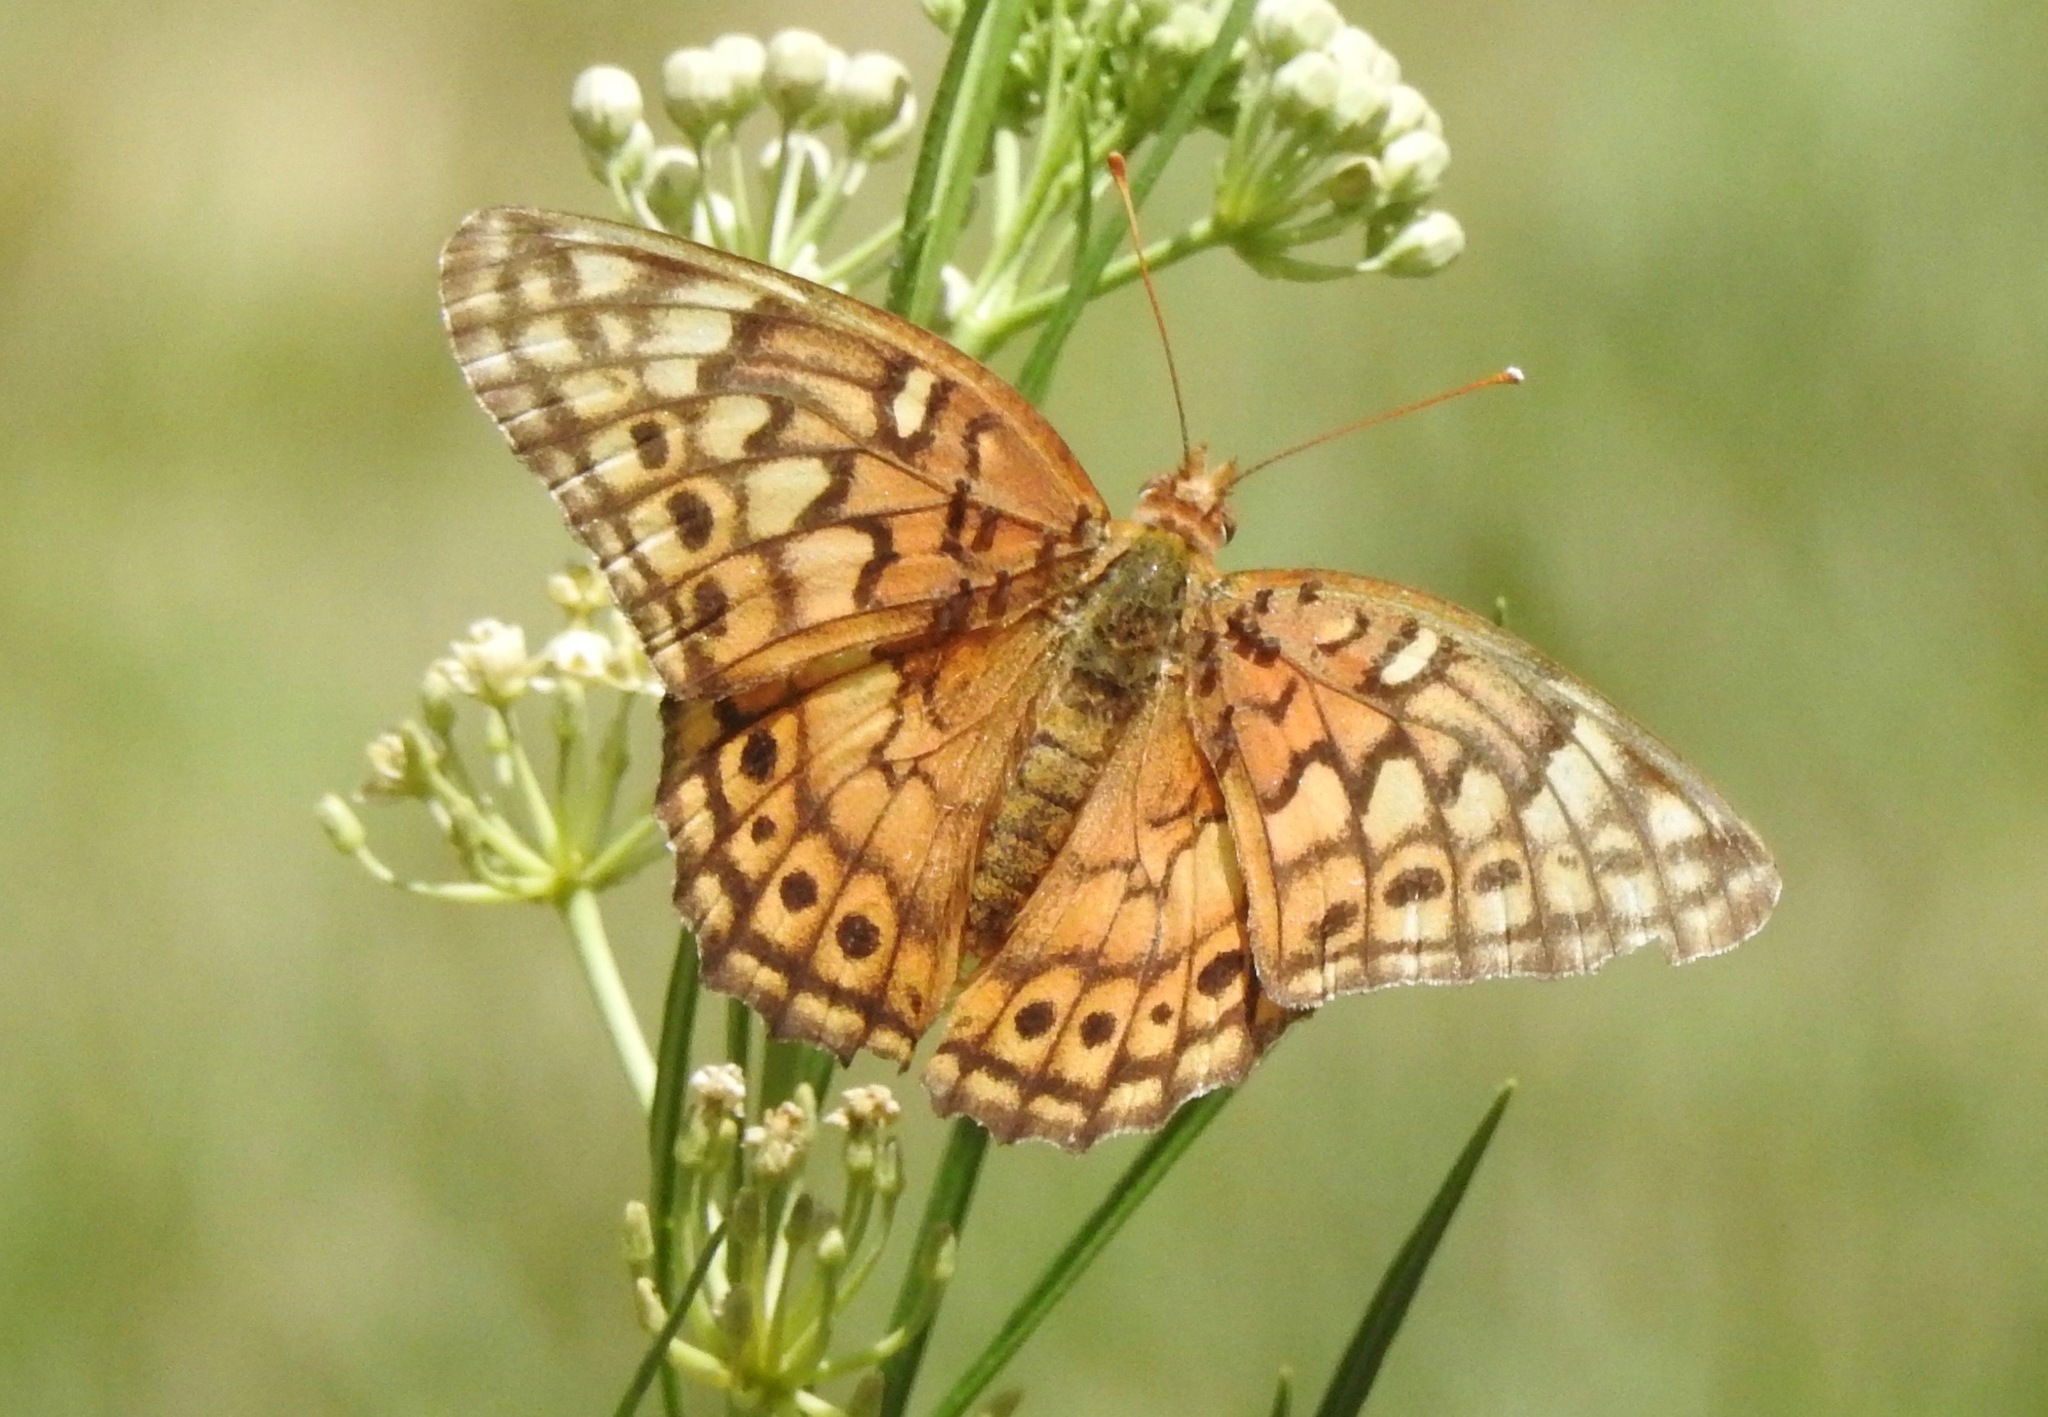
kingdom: Animalia
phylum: Arthropoda
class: Insecta
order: Lepidoptera
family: Nymphalidae
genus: Euptoieta
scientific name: Euptoieta claudia
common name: Variegated fritillary
